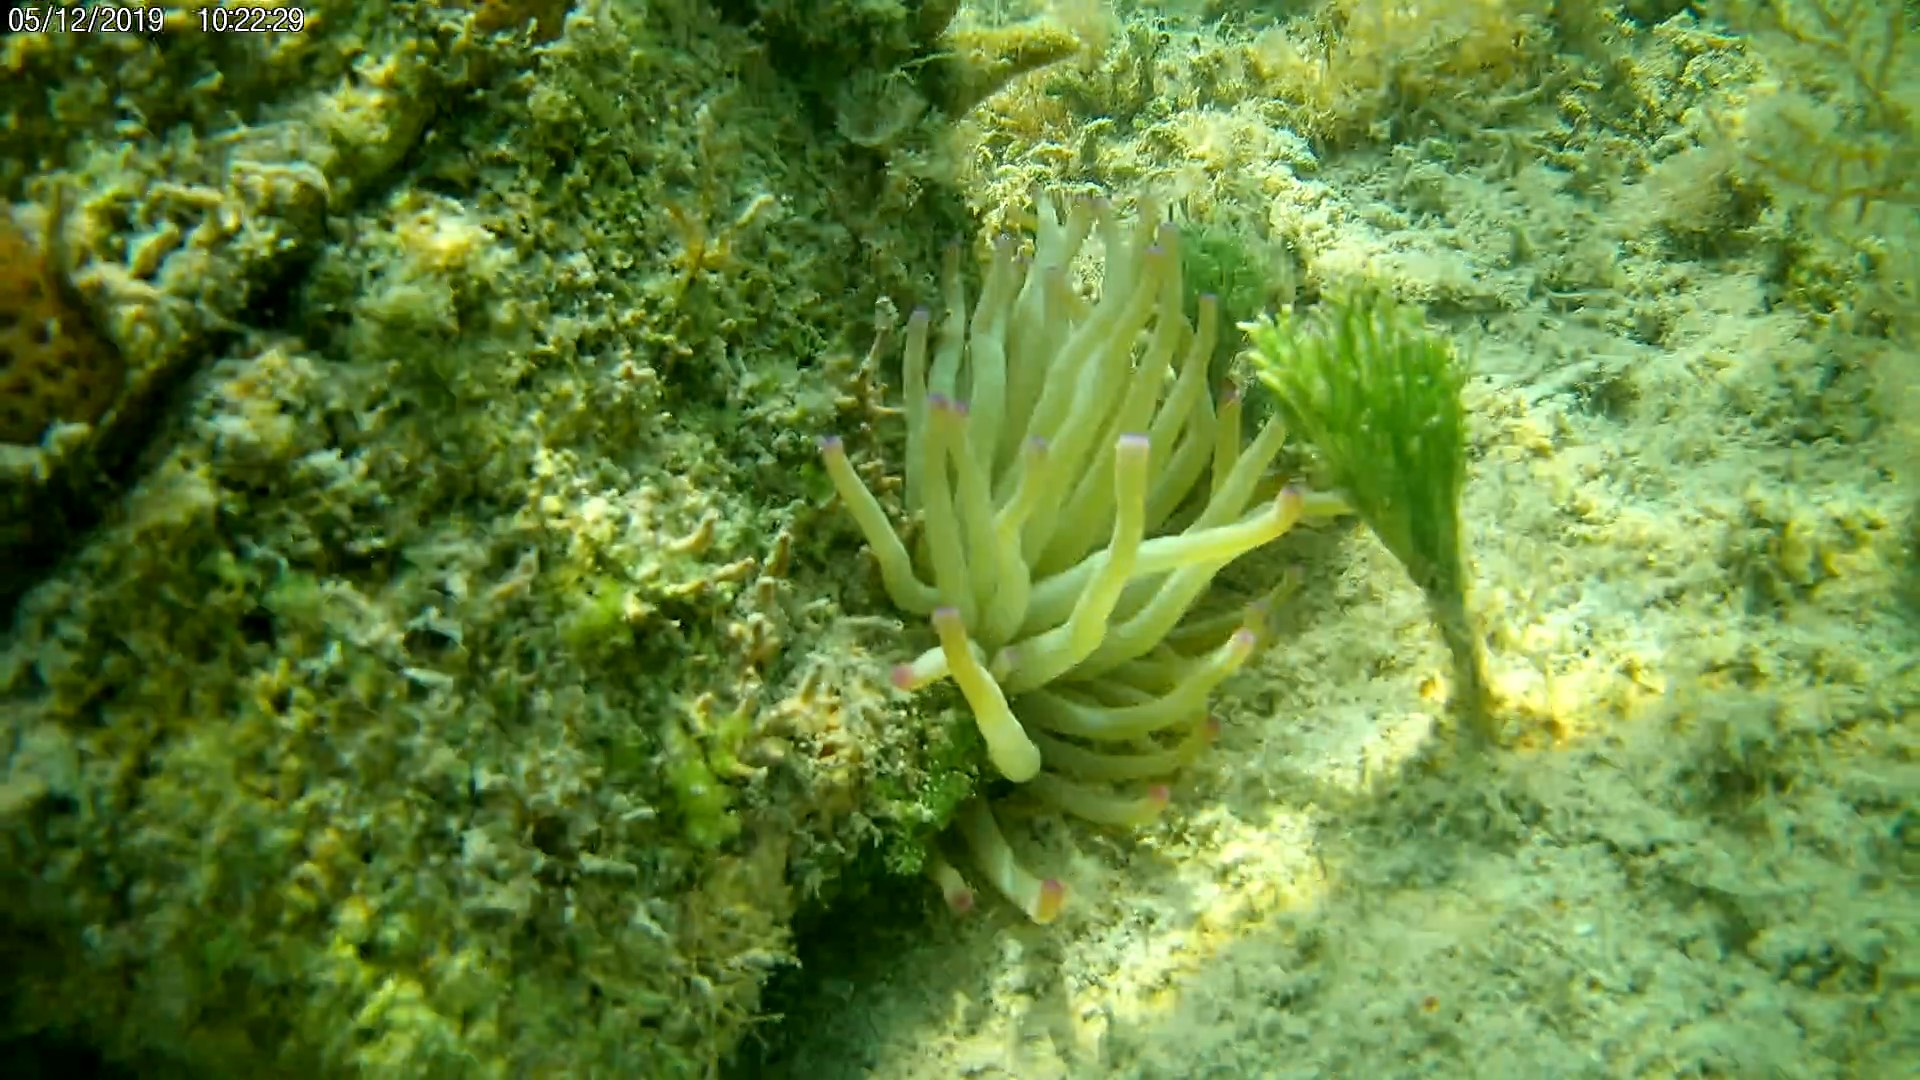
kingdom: Animalia
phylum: Cnidaria
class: Anthozoa
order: Actiniaria
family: Actiniidae
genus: Condylactis
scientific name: Condylactis gigantea
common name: Giant caribbean anemone
